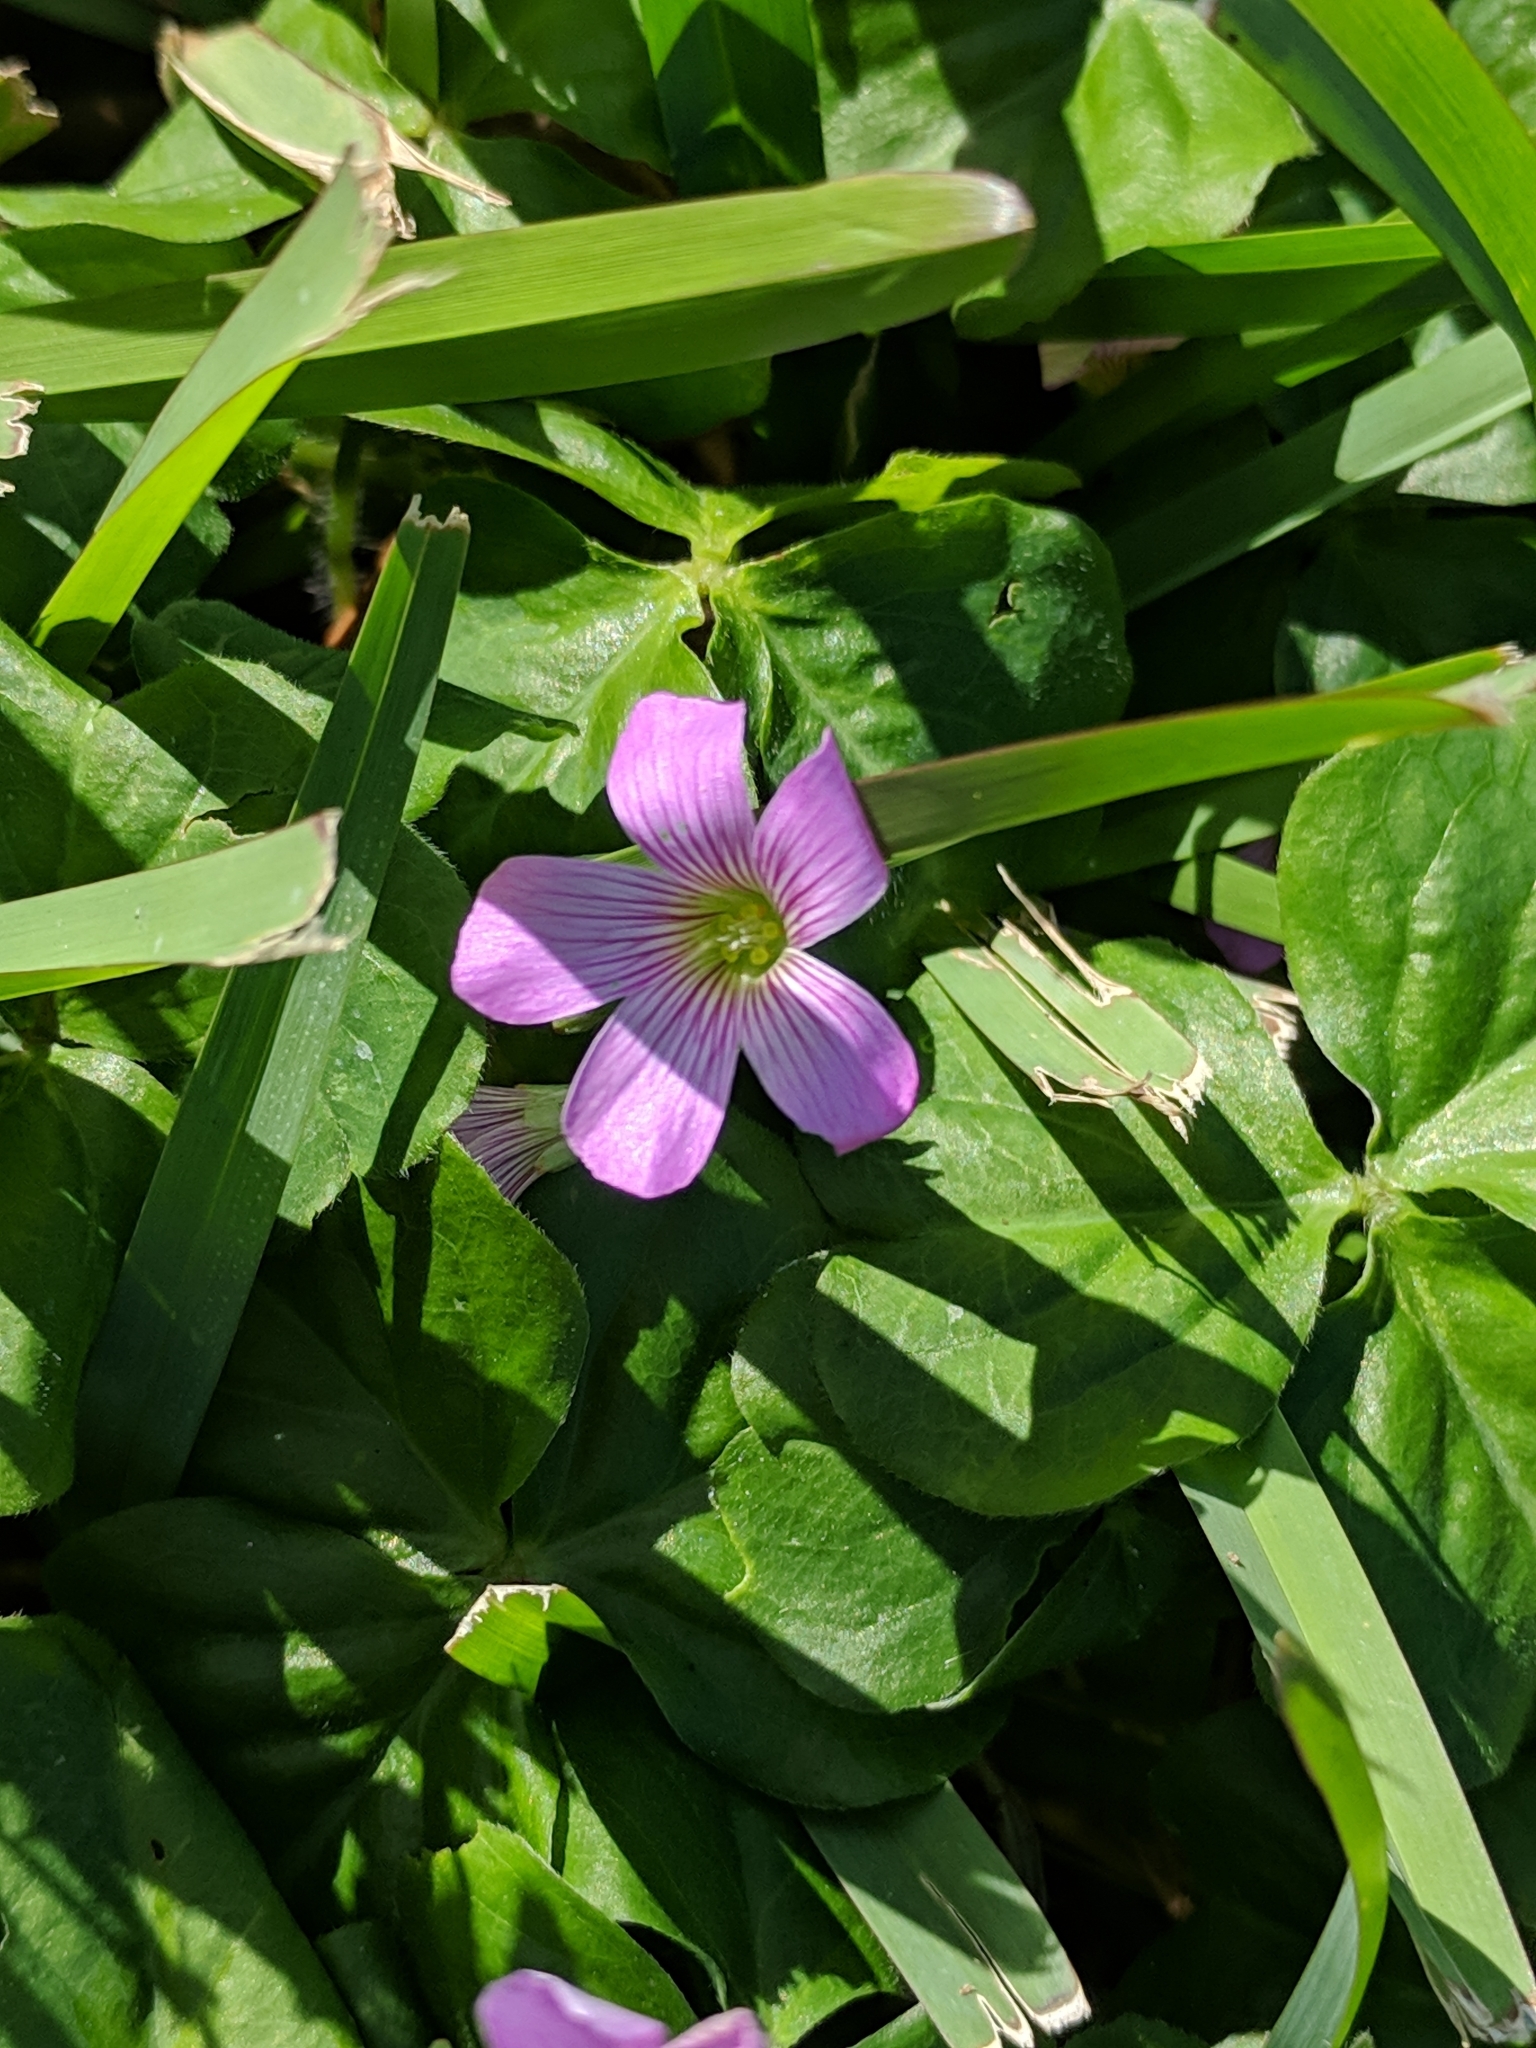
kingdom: Plantae
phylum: Tracheophyta
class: Magnoliopsida
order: Oxalidales
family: Oxalidaceae
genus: Oxalis
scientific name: Oxalis debilis
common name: Large-flowered pink-sorrel
